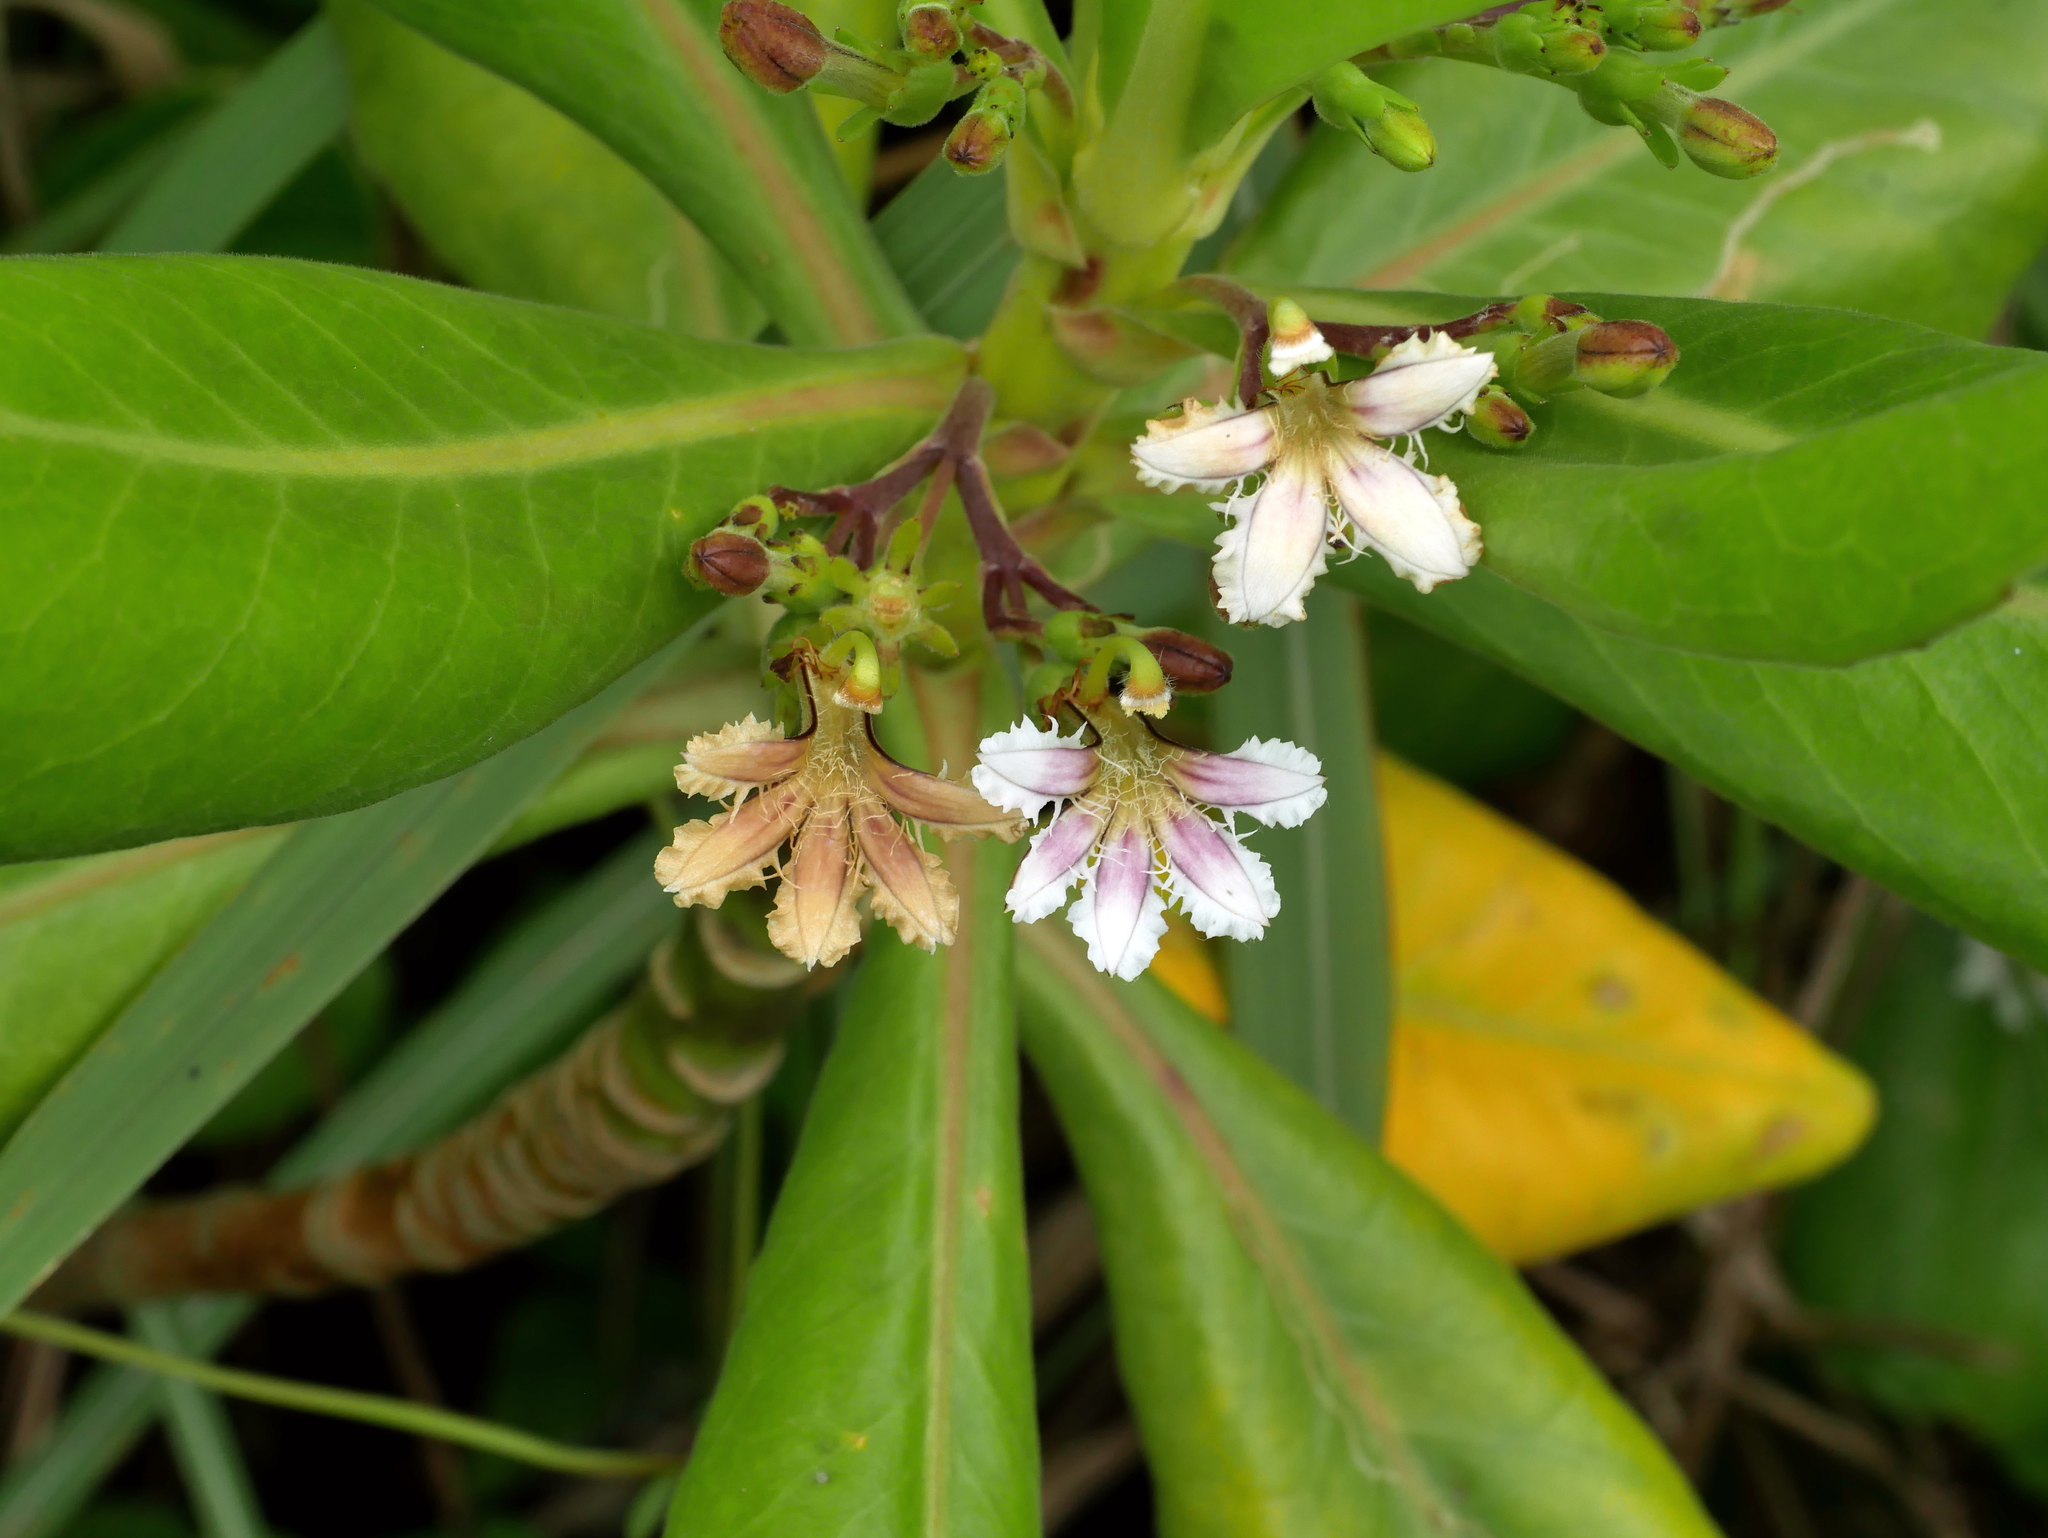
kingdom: Plantae
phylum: Tracheophyta
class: Magnoliopsida
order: Asterales
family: Goodeniaceae
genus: Scaevola
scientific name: Scaevola taccada
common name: Sea lettucetree
